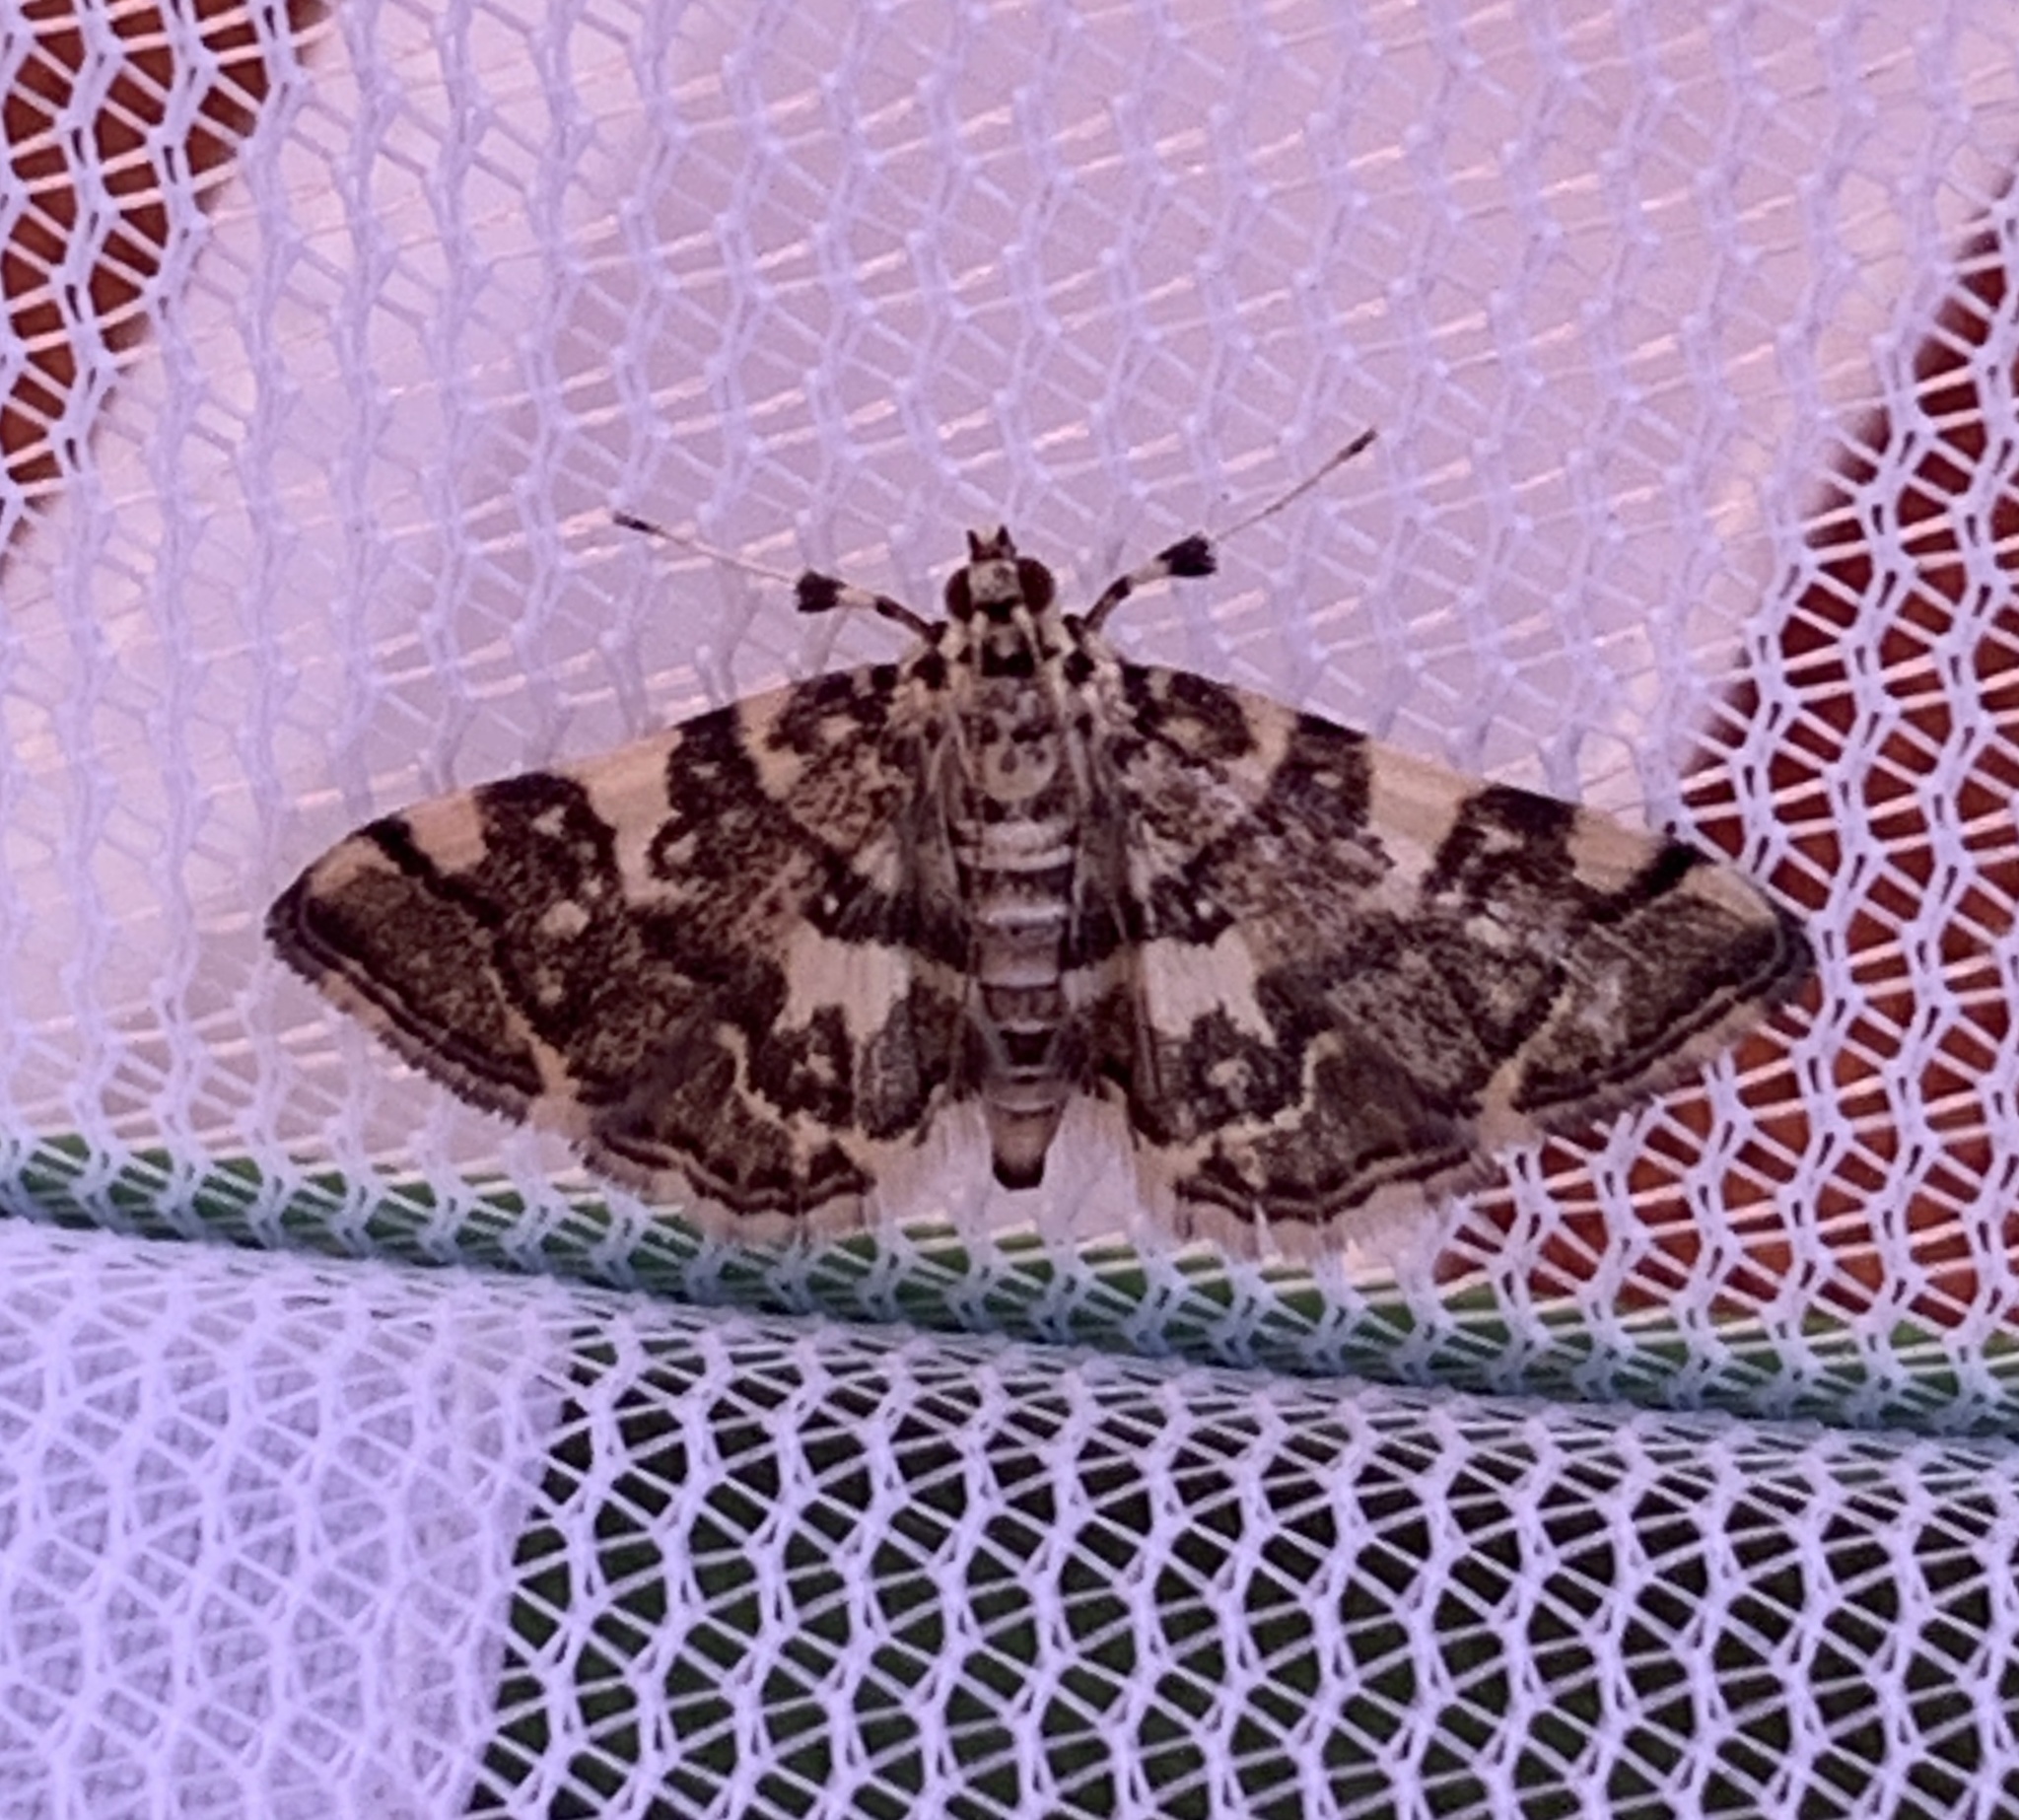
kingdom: Animalia
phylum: Arthropoda
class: Insecta
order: Lepidoptera
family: Crambidae
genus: Apogeshna
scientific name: Apogeshna stenialis
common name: Checkered apogeshna moth
